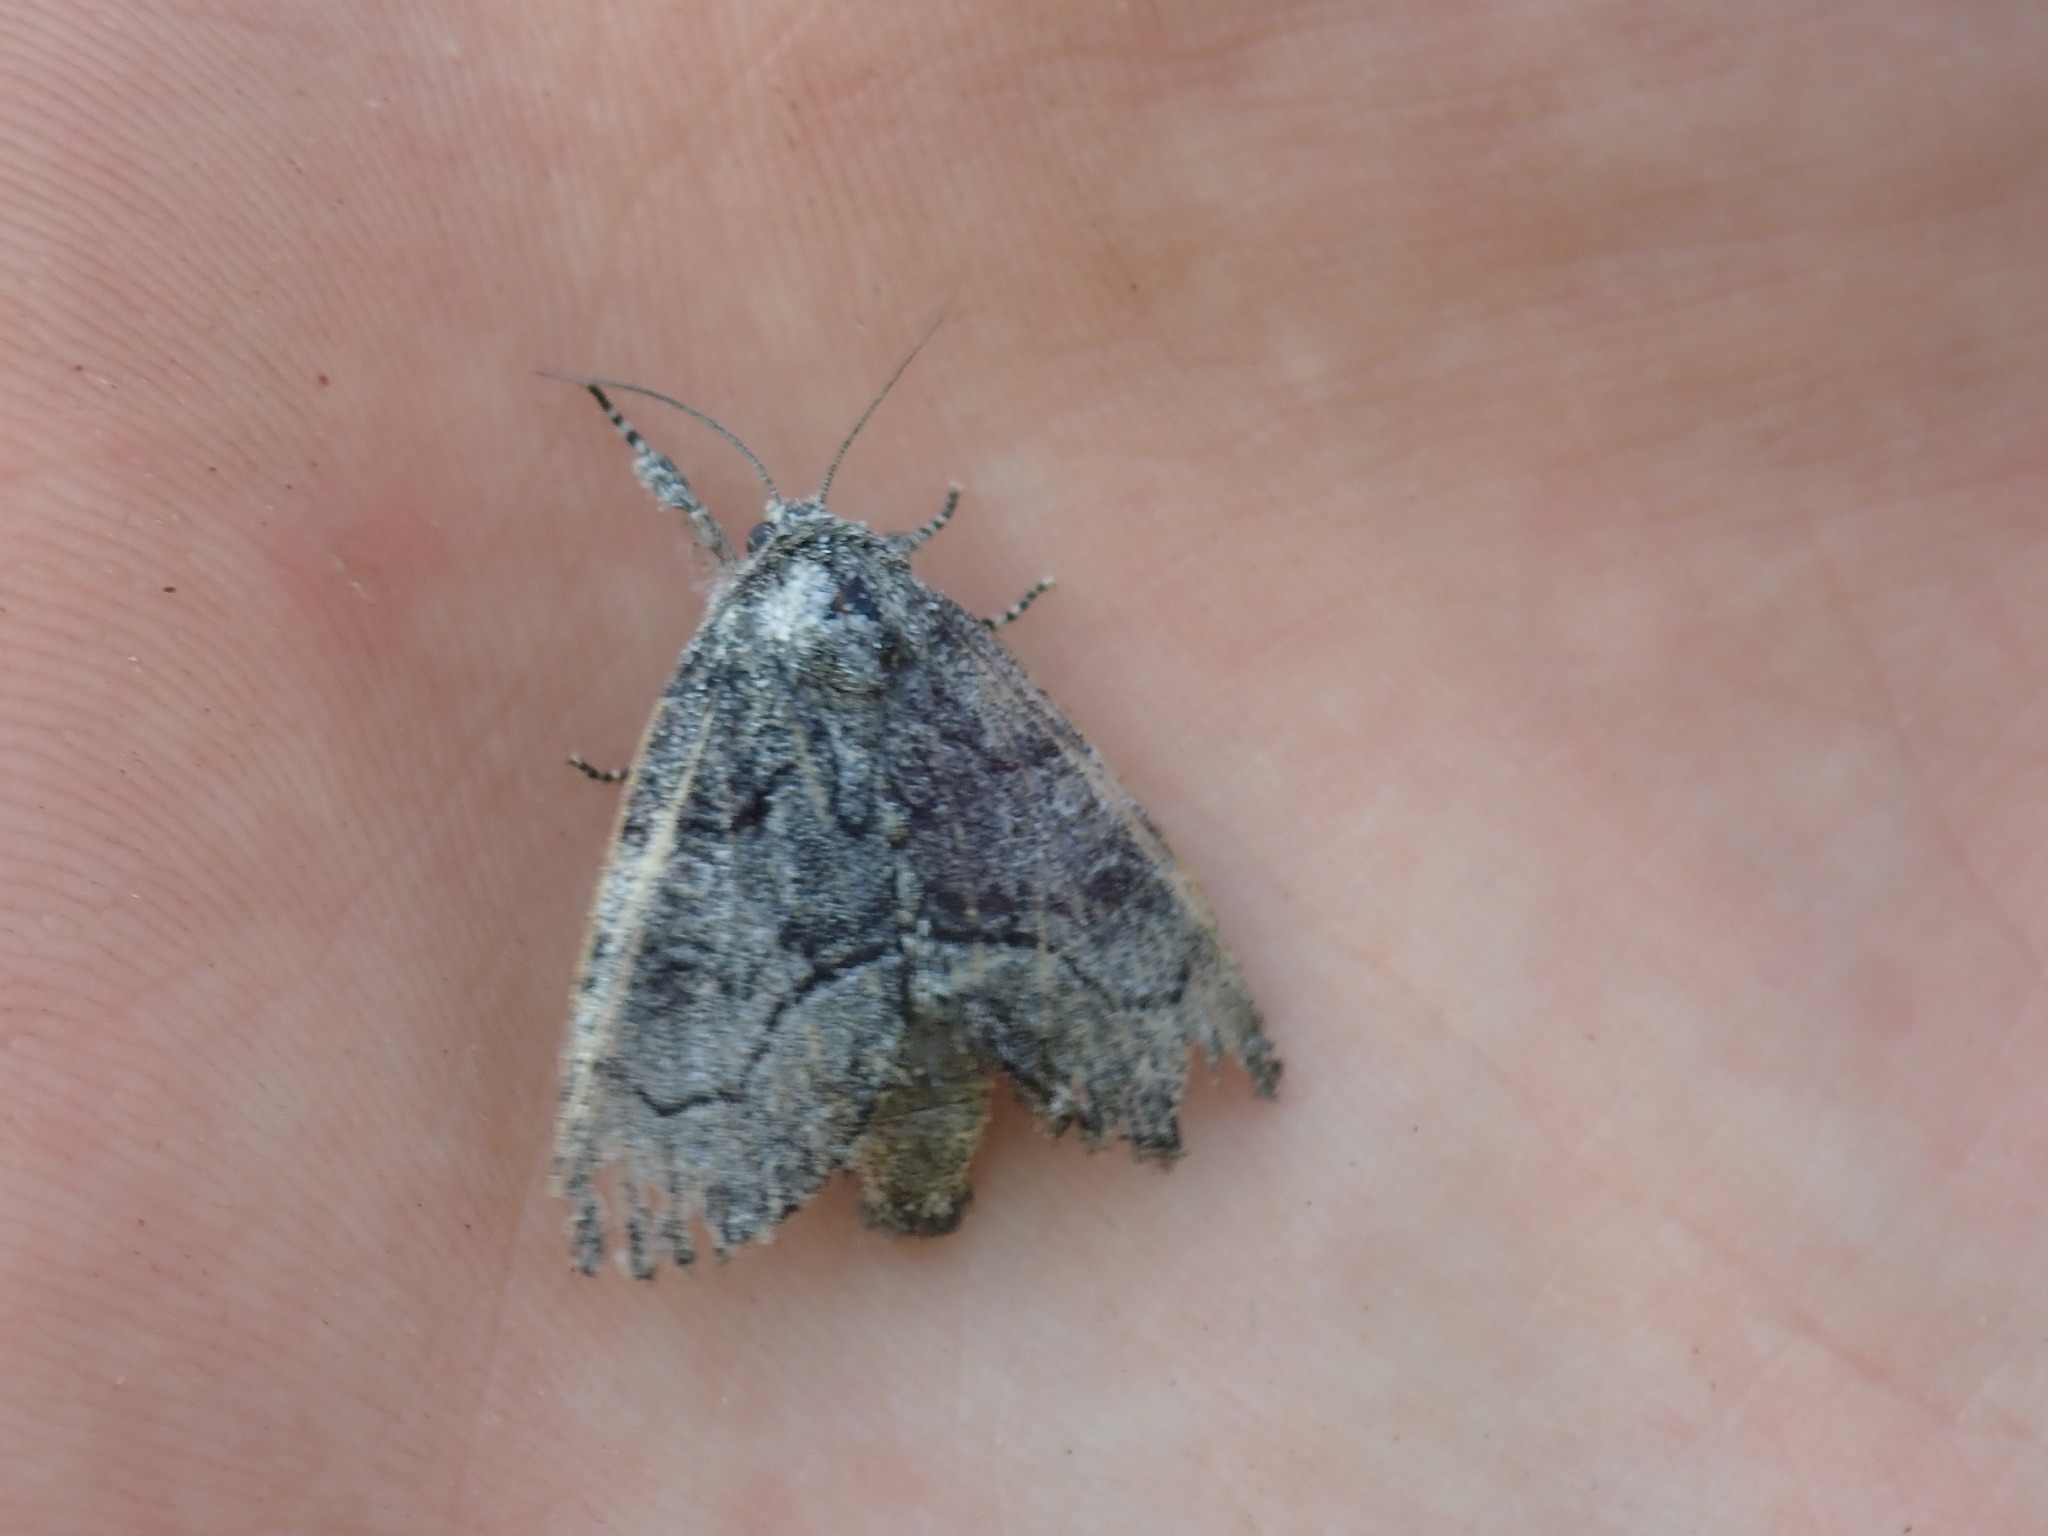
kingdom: Animalia
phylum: Arthropoda
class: Insecta
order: Lepidoptera
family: Noctuidae
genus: Raphia
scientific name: Raphia frater
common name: Brother
